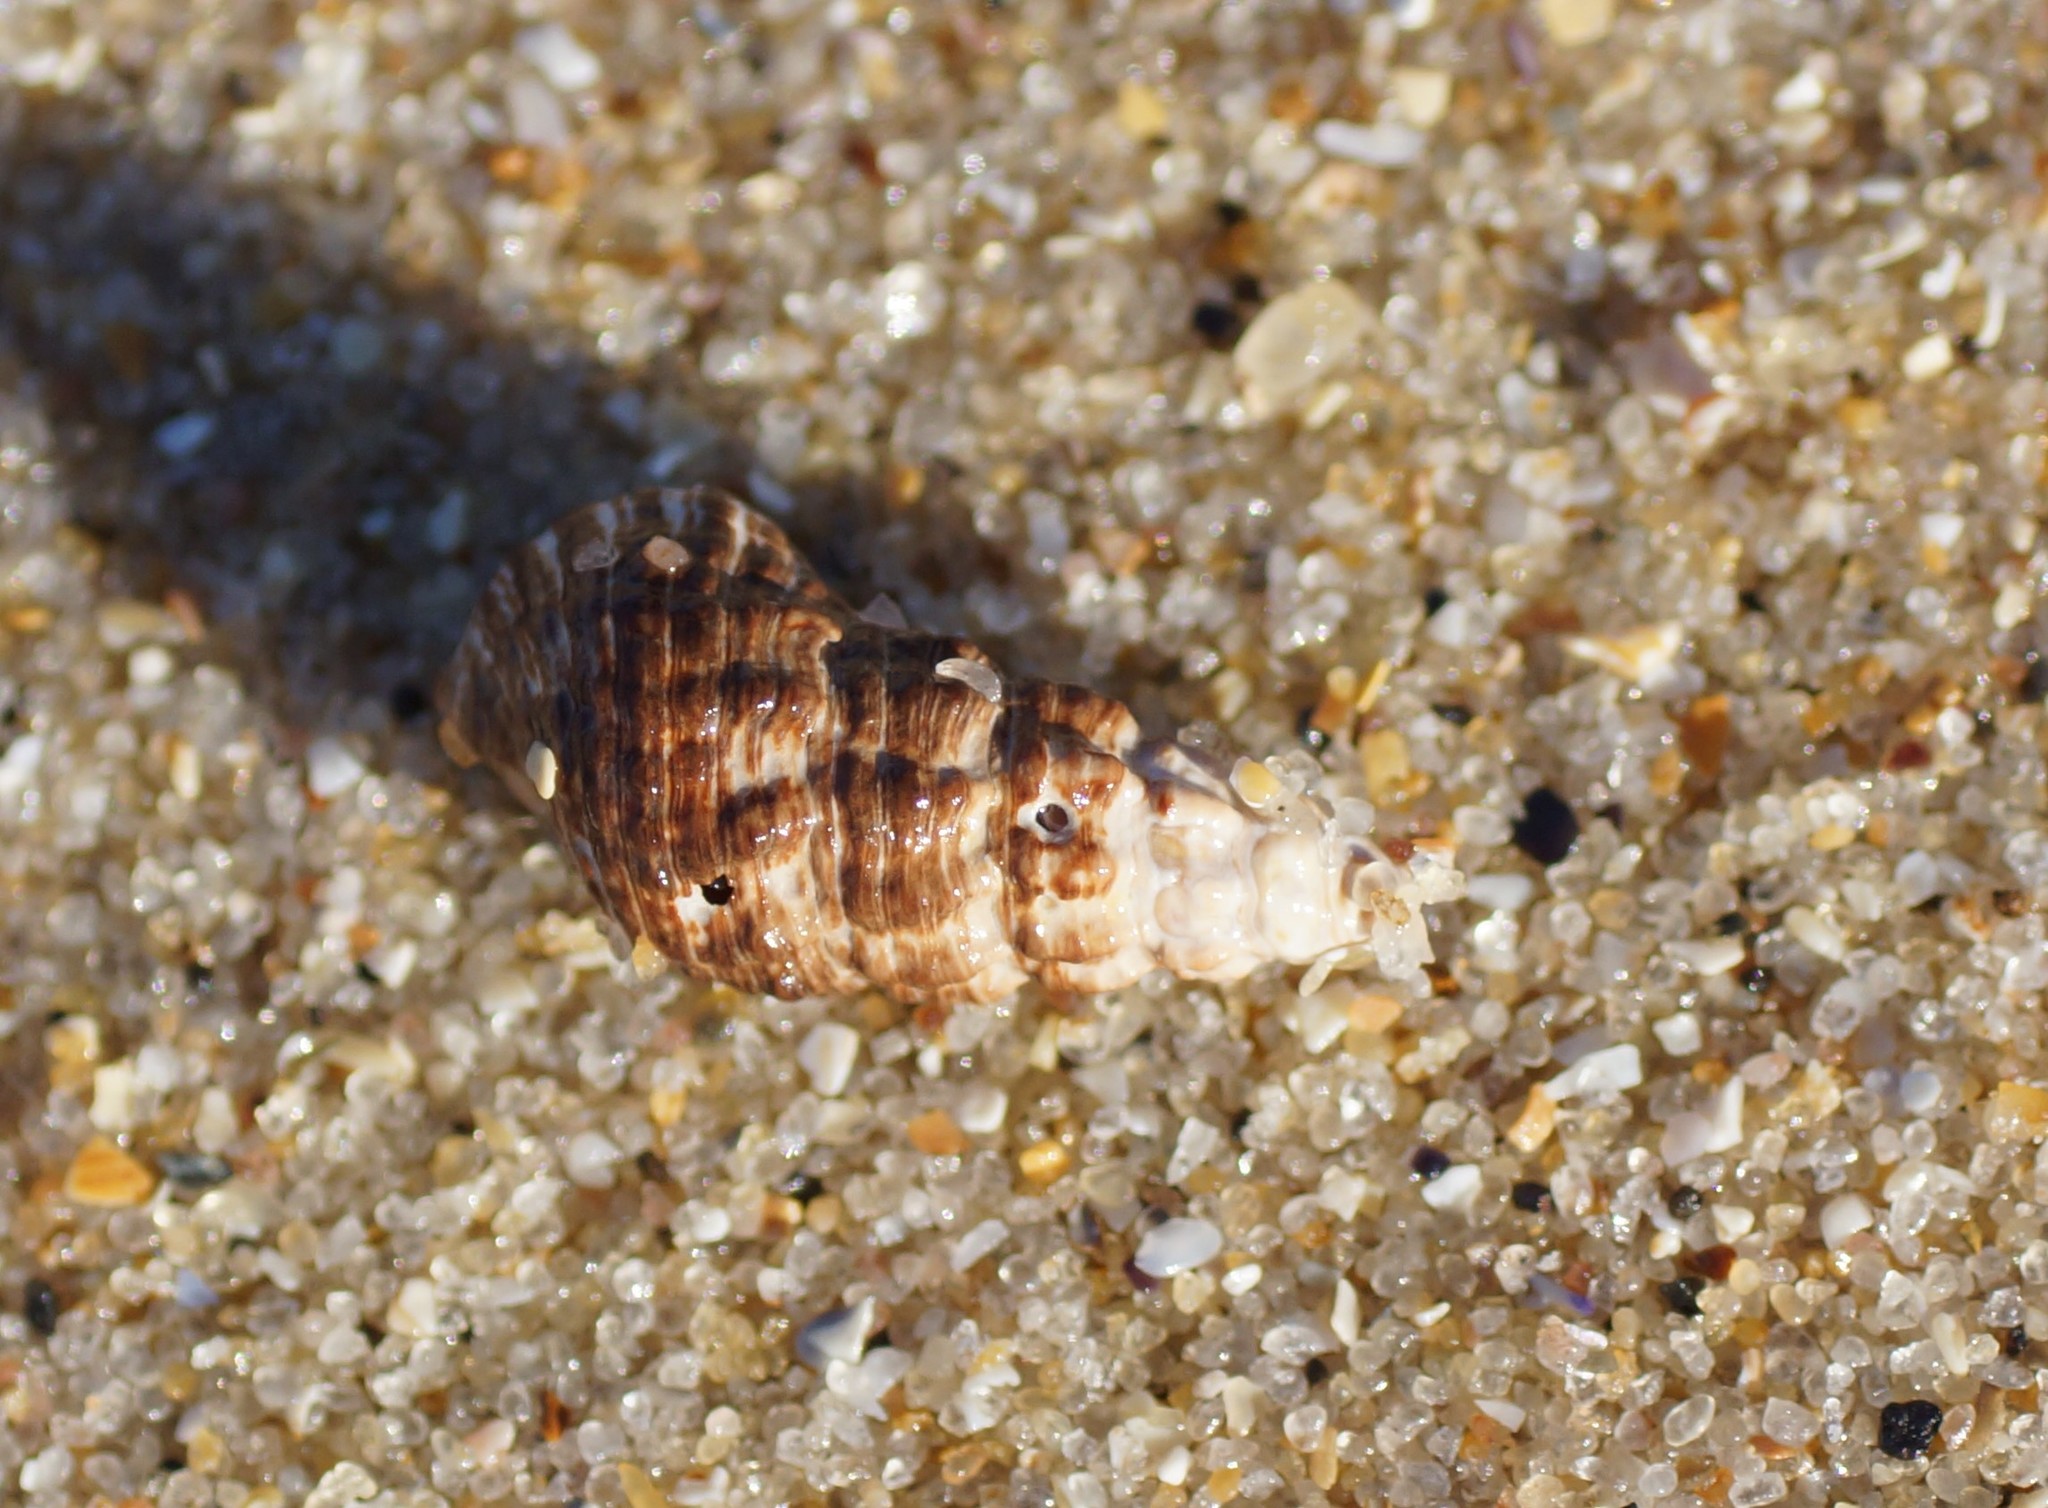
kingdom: Animalia
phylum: Mollusca
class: Gastropoda
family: Batillariidae
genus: Batillaria
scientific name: Batillaria australis
